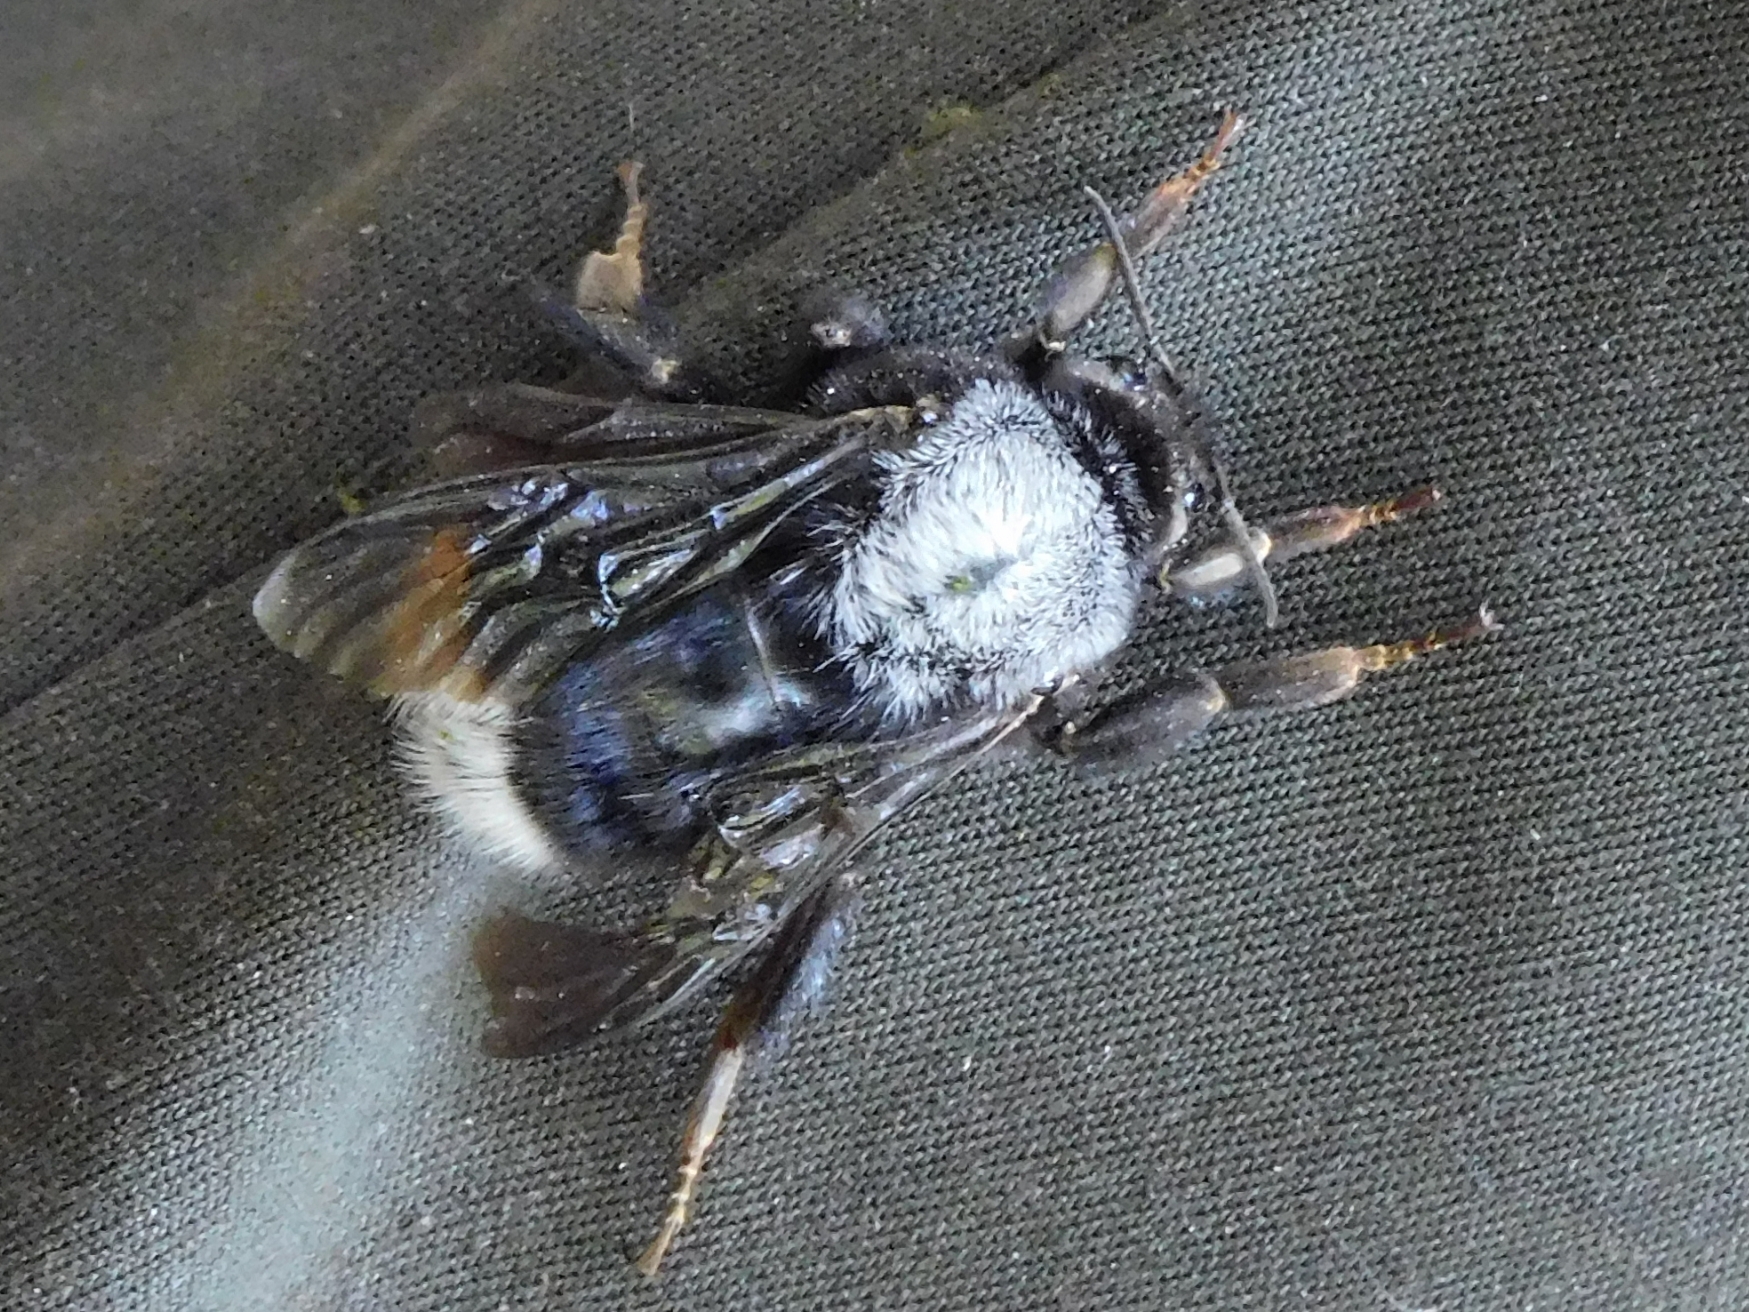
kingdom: Animalia
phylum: Arthropoda
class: Insecta
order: Hymenoptera
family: Apidae
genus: Bombus
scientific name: Bombus festivus
